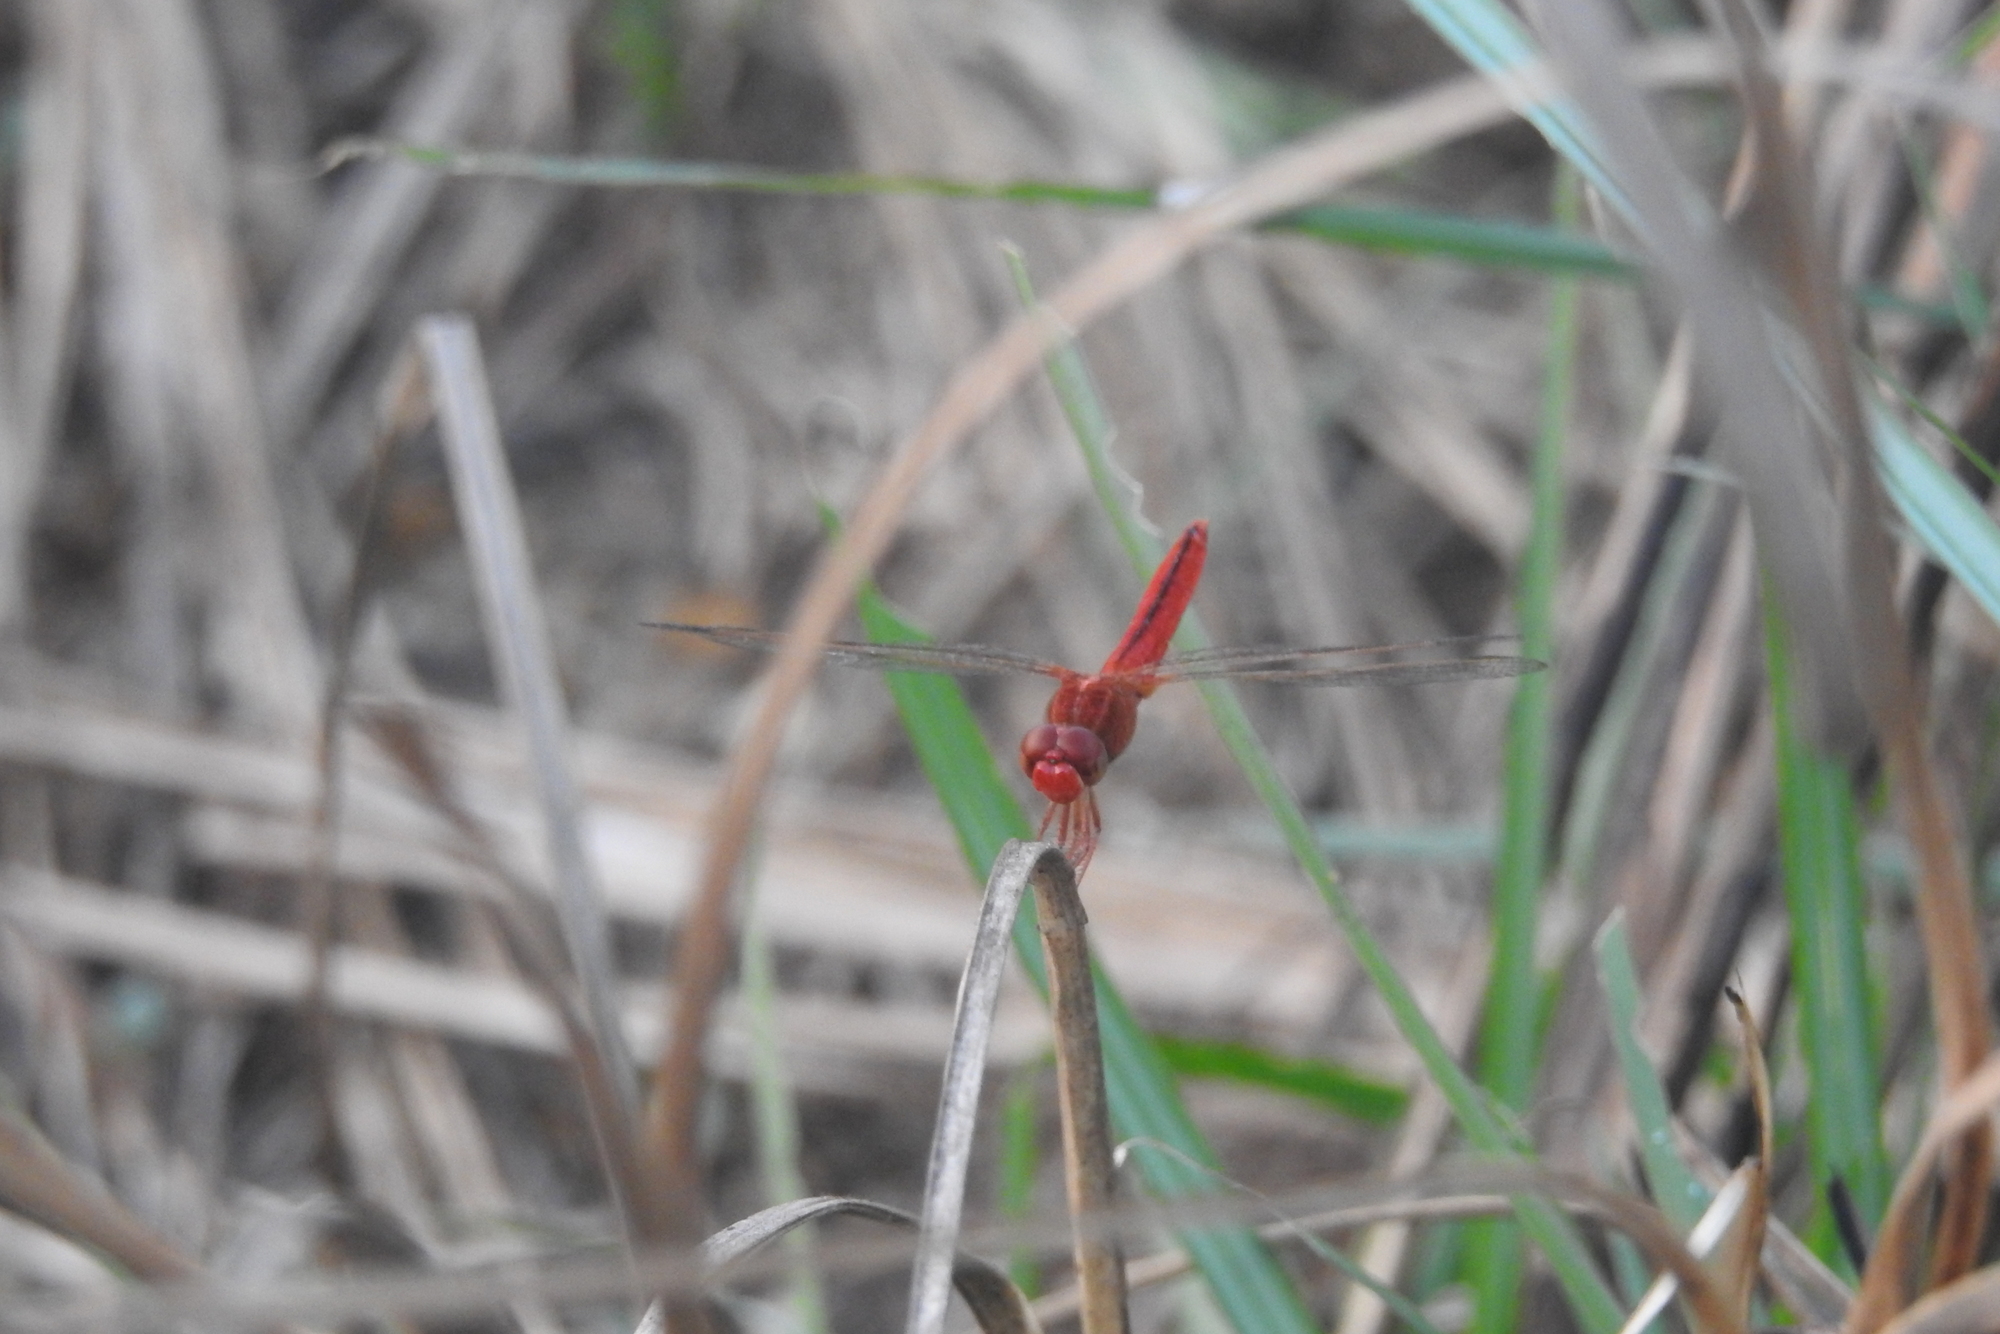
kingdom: Animalia
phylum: Arthropoda
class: Insecta
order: Odonata
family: Libellulidae
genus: Crocothemis
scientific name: Crocothemis servilia
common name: Scarlet skimmer
